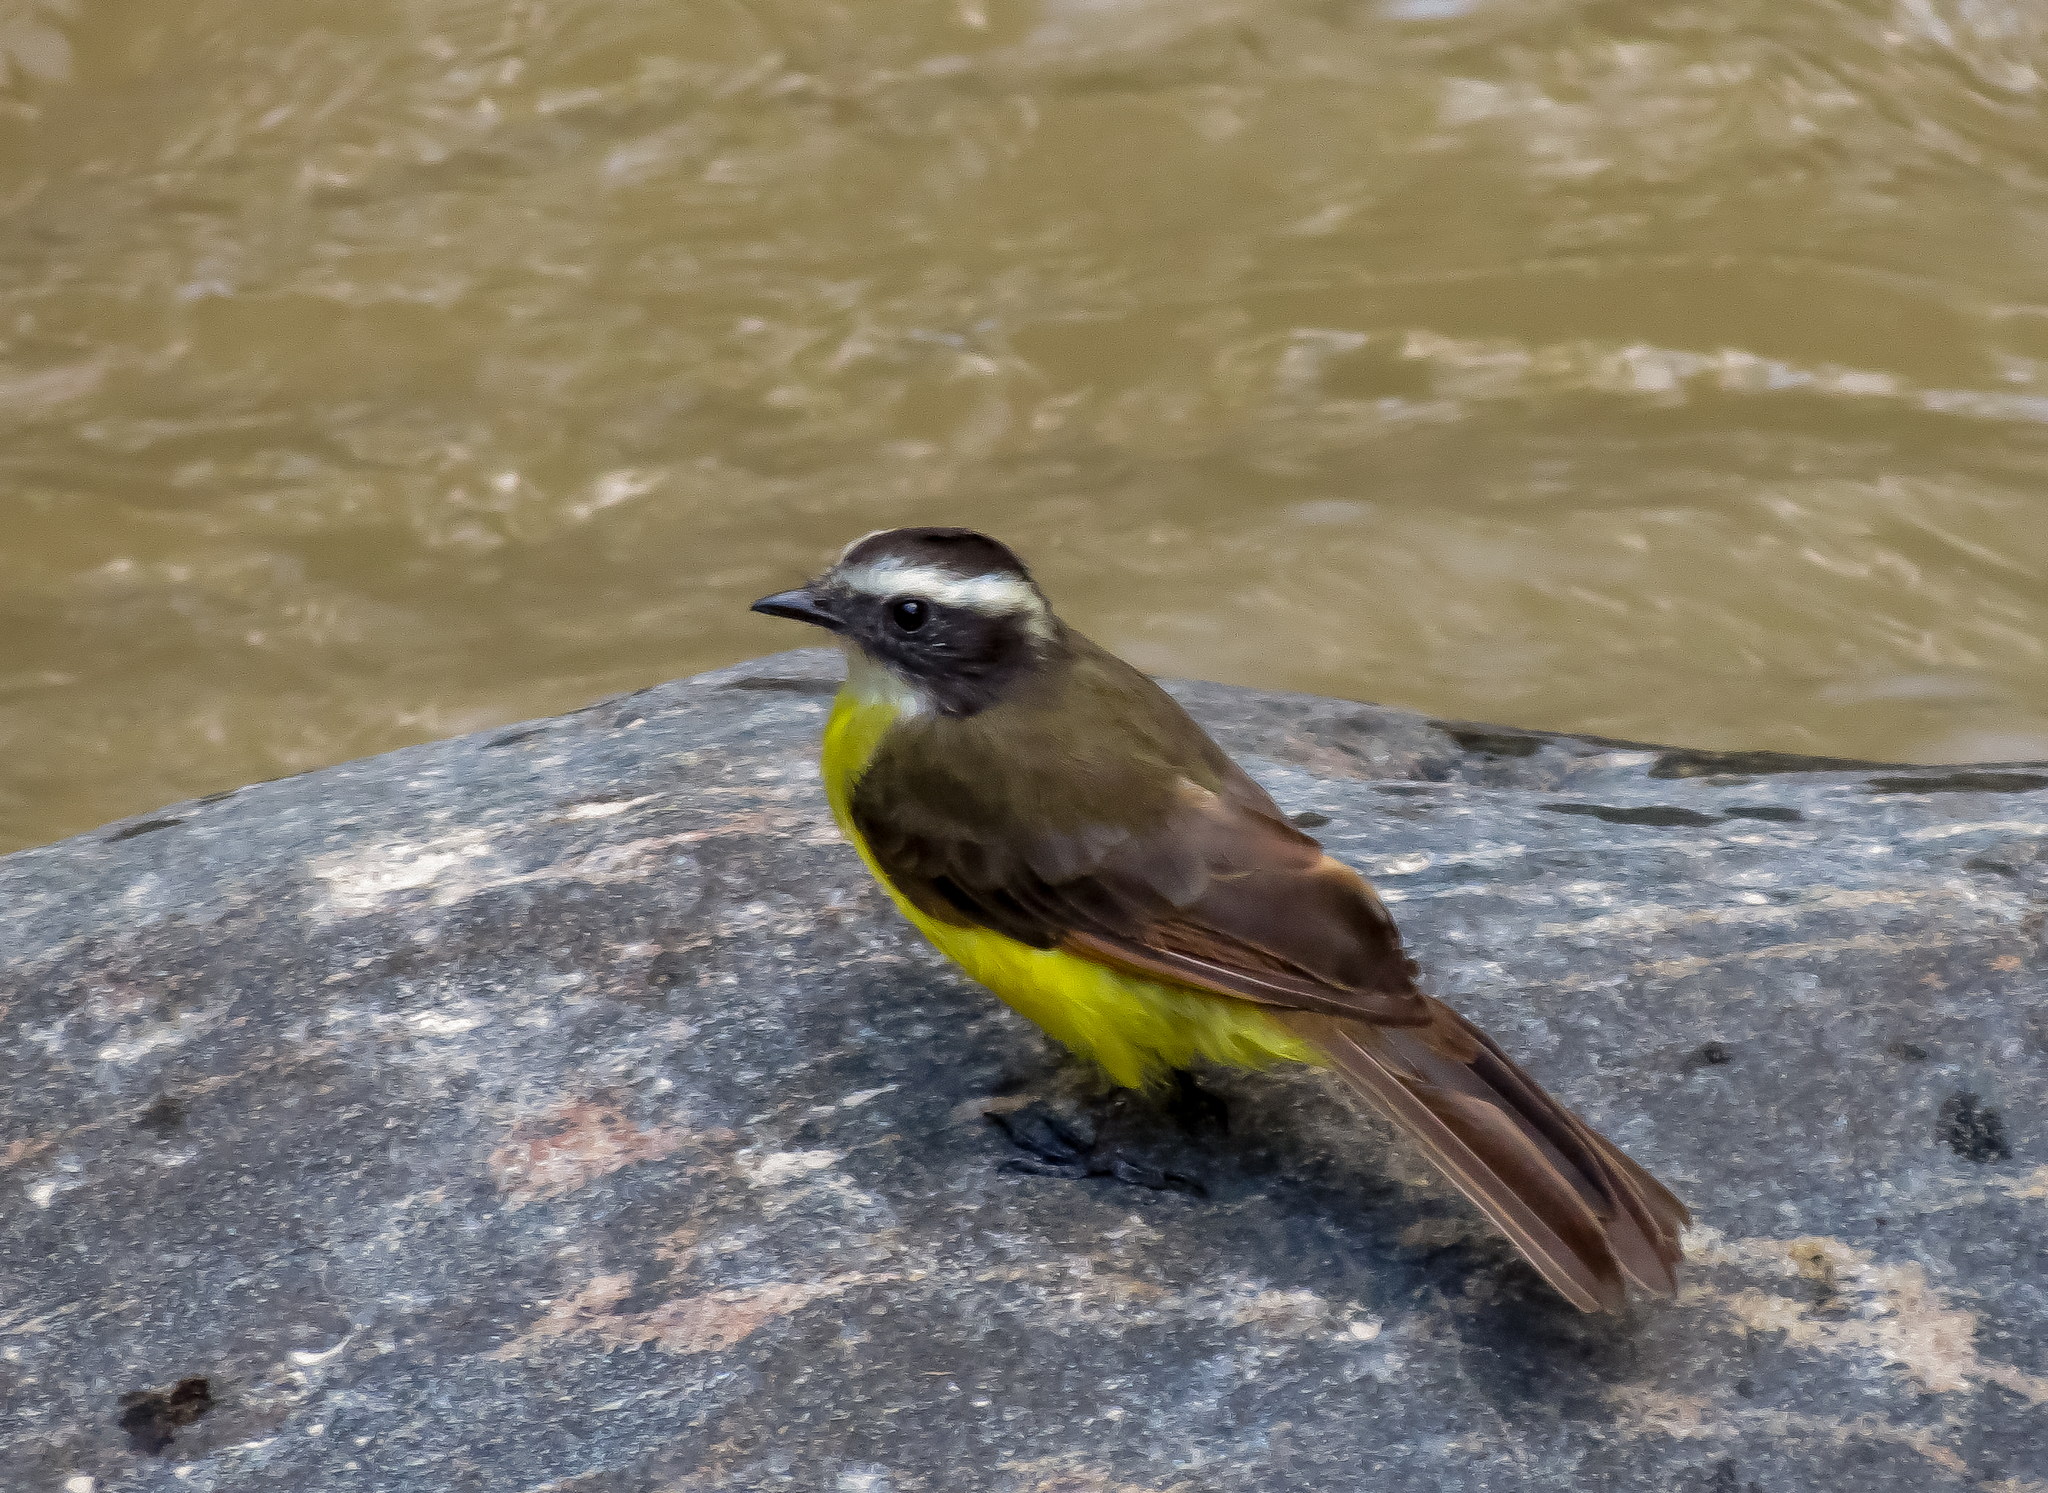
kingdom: Animalia
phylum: Chordata
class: Aves
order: Passeriformes
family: Tyrannidae
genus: Myiozetetes
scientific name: Myiozetetes cayanensis
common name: Rusty-margined flycatcher
